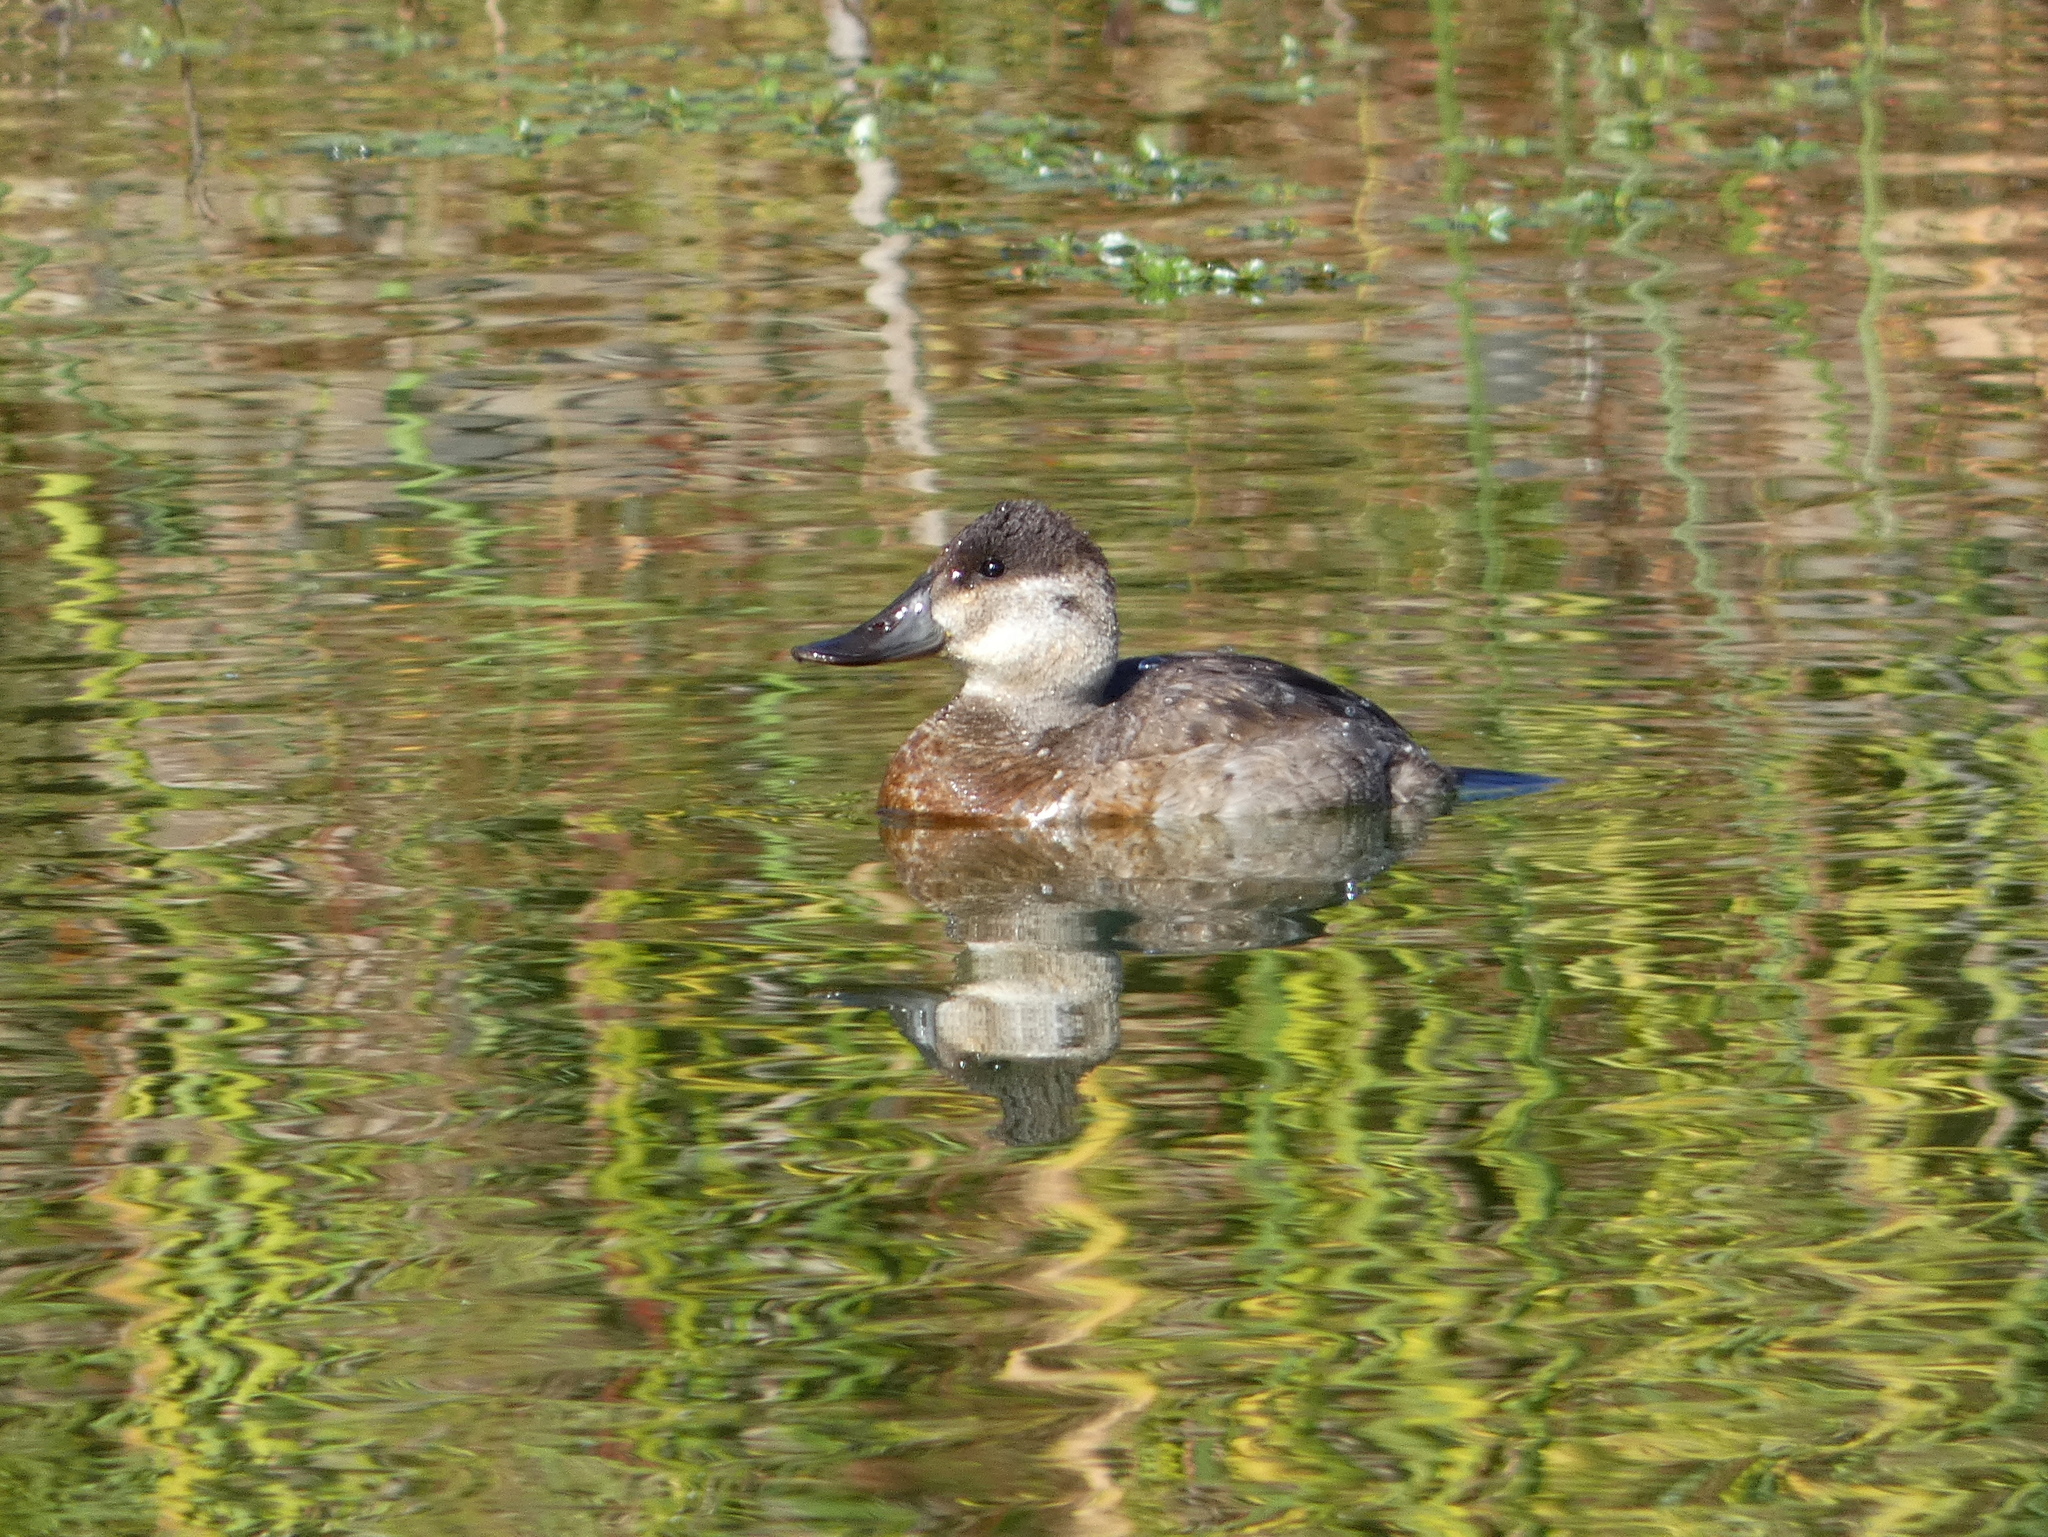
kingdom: Animalia
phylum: Chordata
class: Aves
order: Anseriformes
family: Anatidae
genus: Oxyura
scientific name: Oxyura jamaicensis
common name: Ruddy duck
